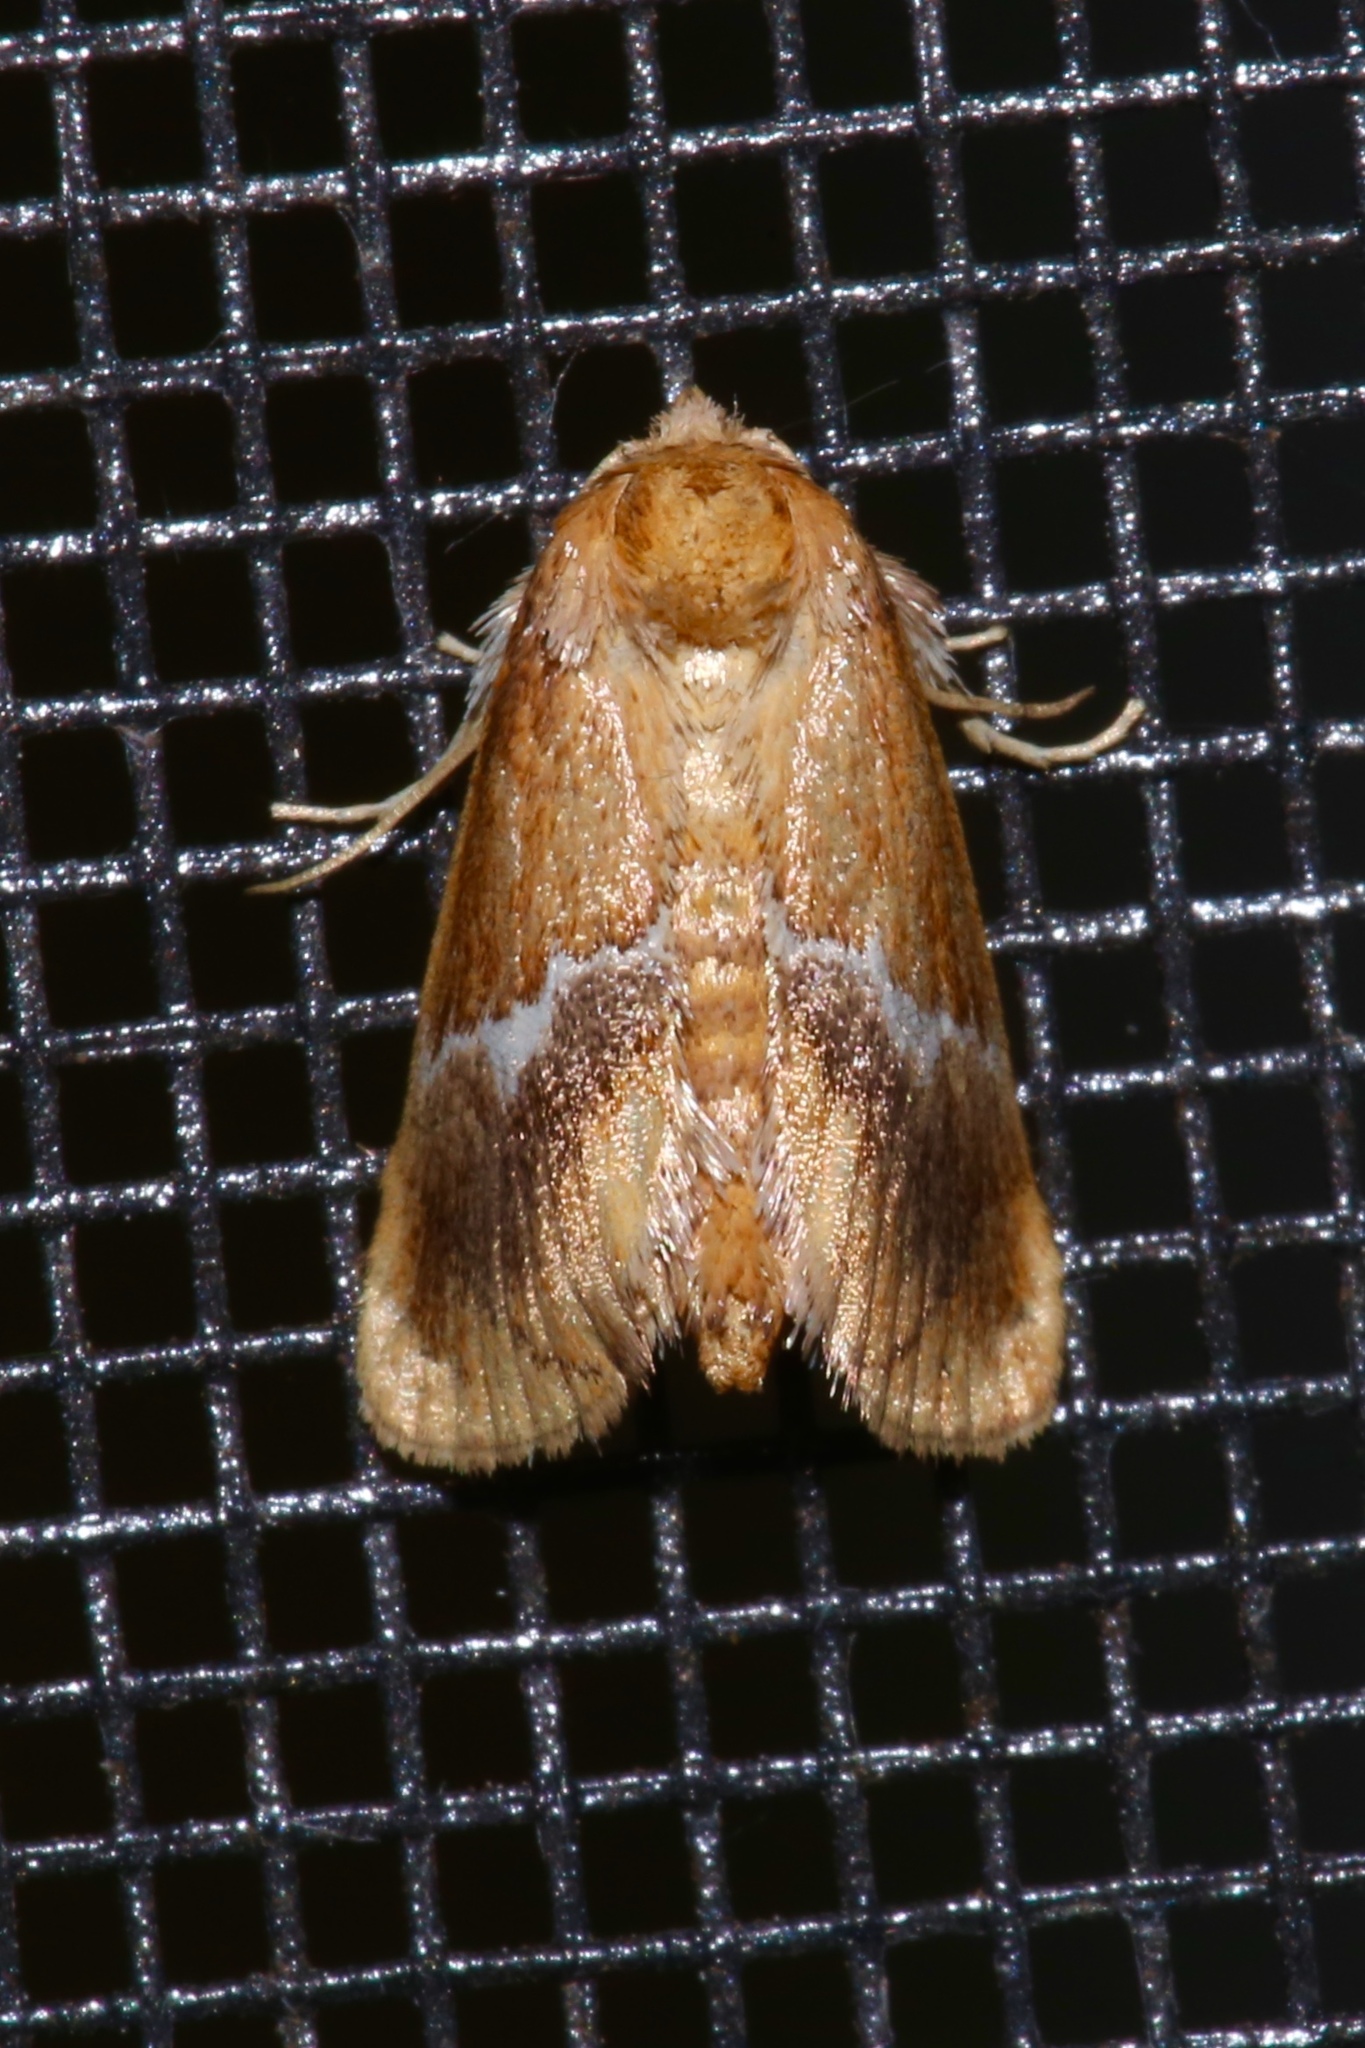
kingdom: Animalia
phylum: Arthropoda
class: Insecta
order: Lepidoptera
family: Limacodidae
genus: Lithacodes
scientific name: Lithacodes fasciola
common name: Yellow-shouldered slug moth
